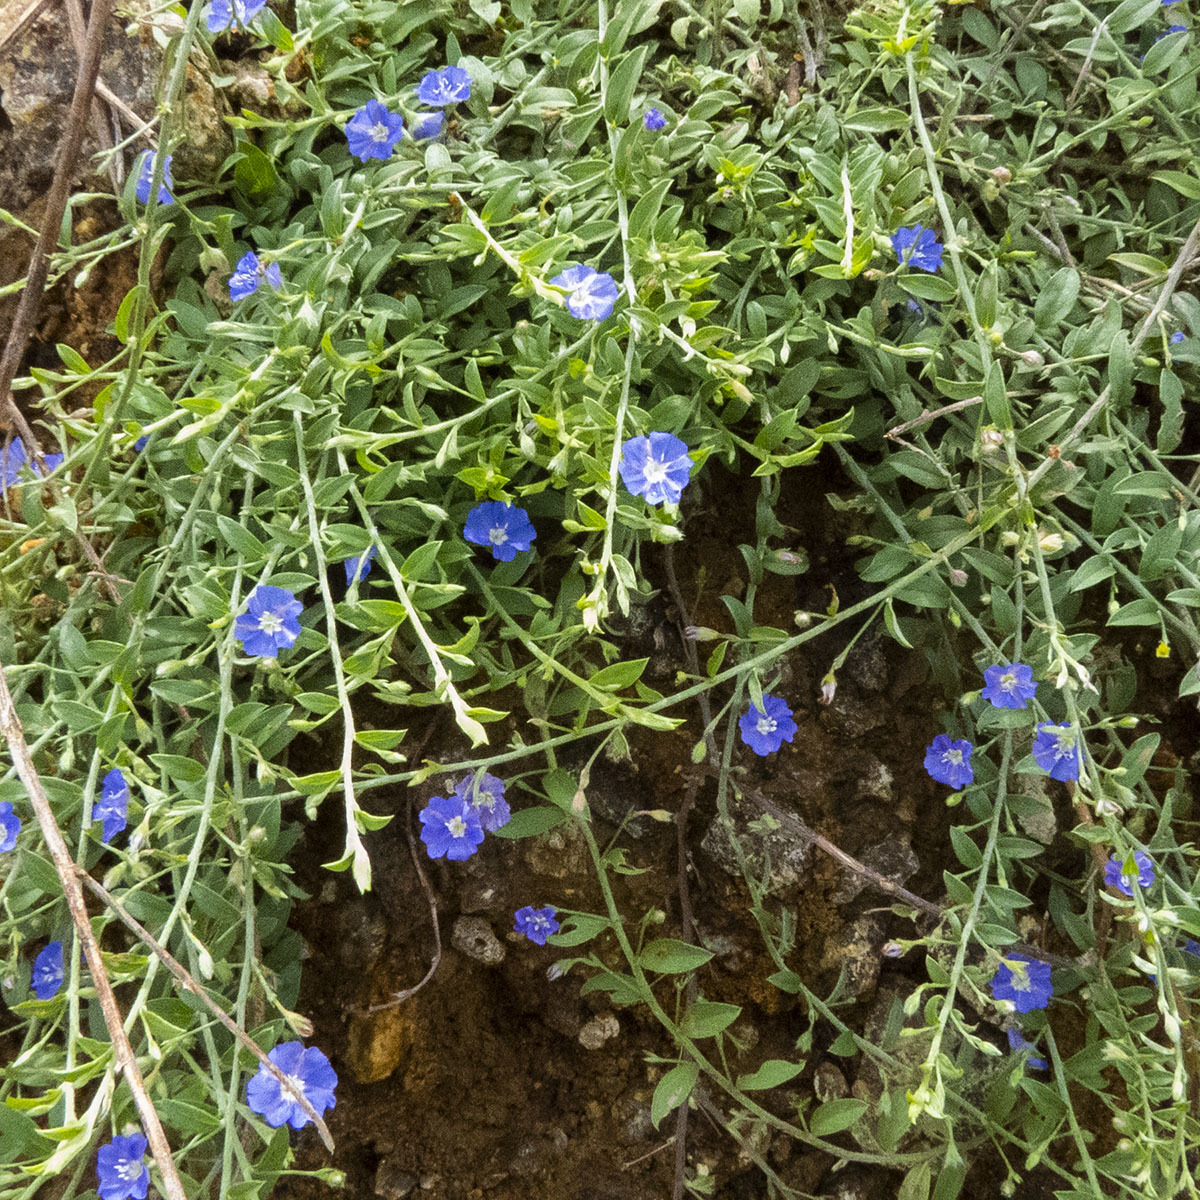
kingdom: Plantae
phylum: Tracheophyta
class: Magnoliopsida
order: Solanales
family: Convolvulaceae
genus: Evolvulus
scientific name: Evolvulus alsinoides
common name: Slender dwarf morning-glory
